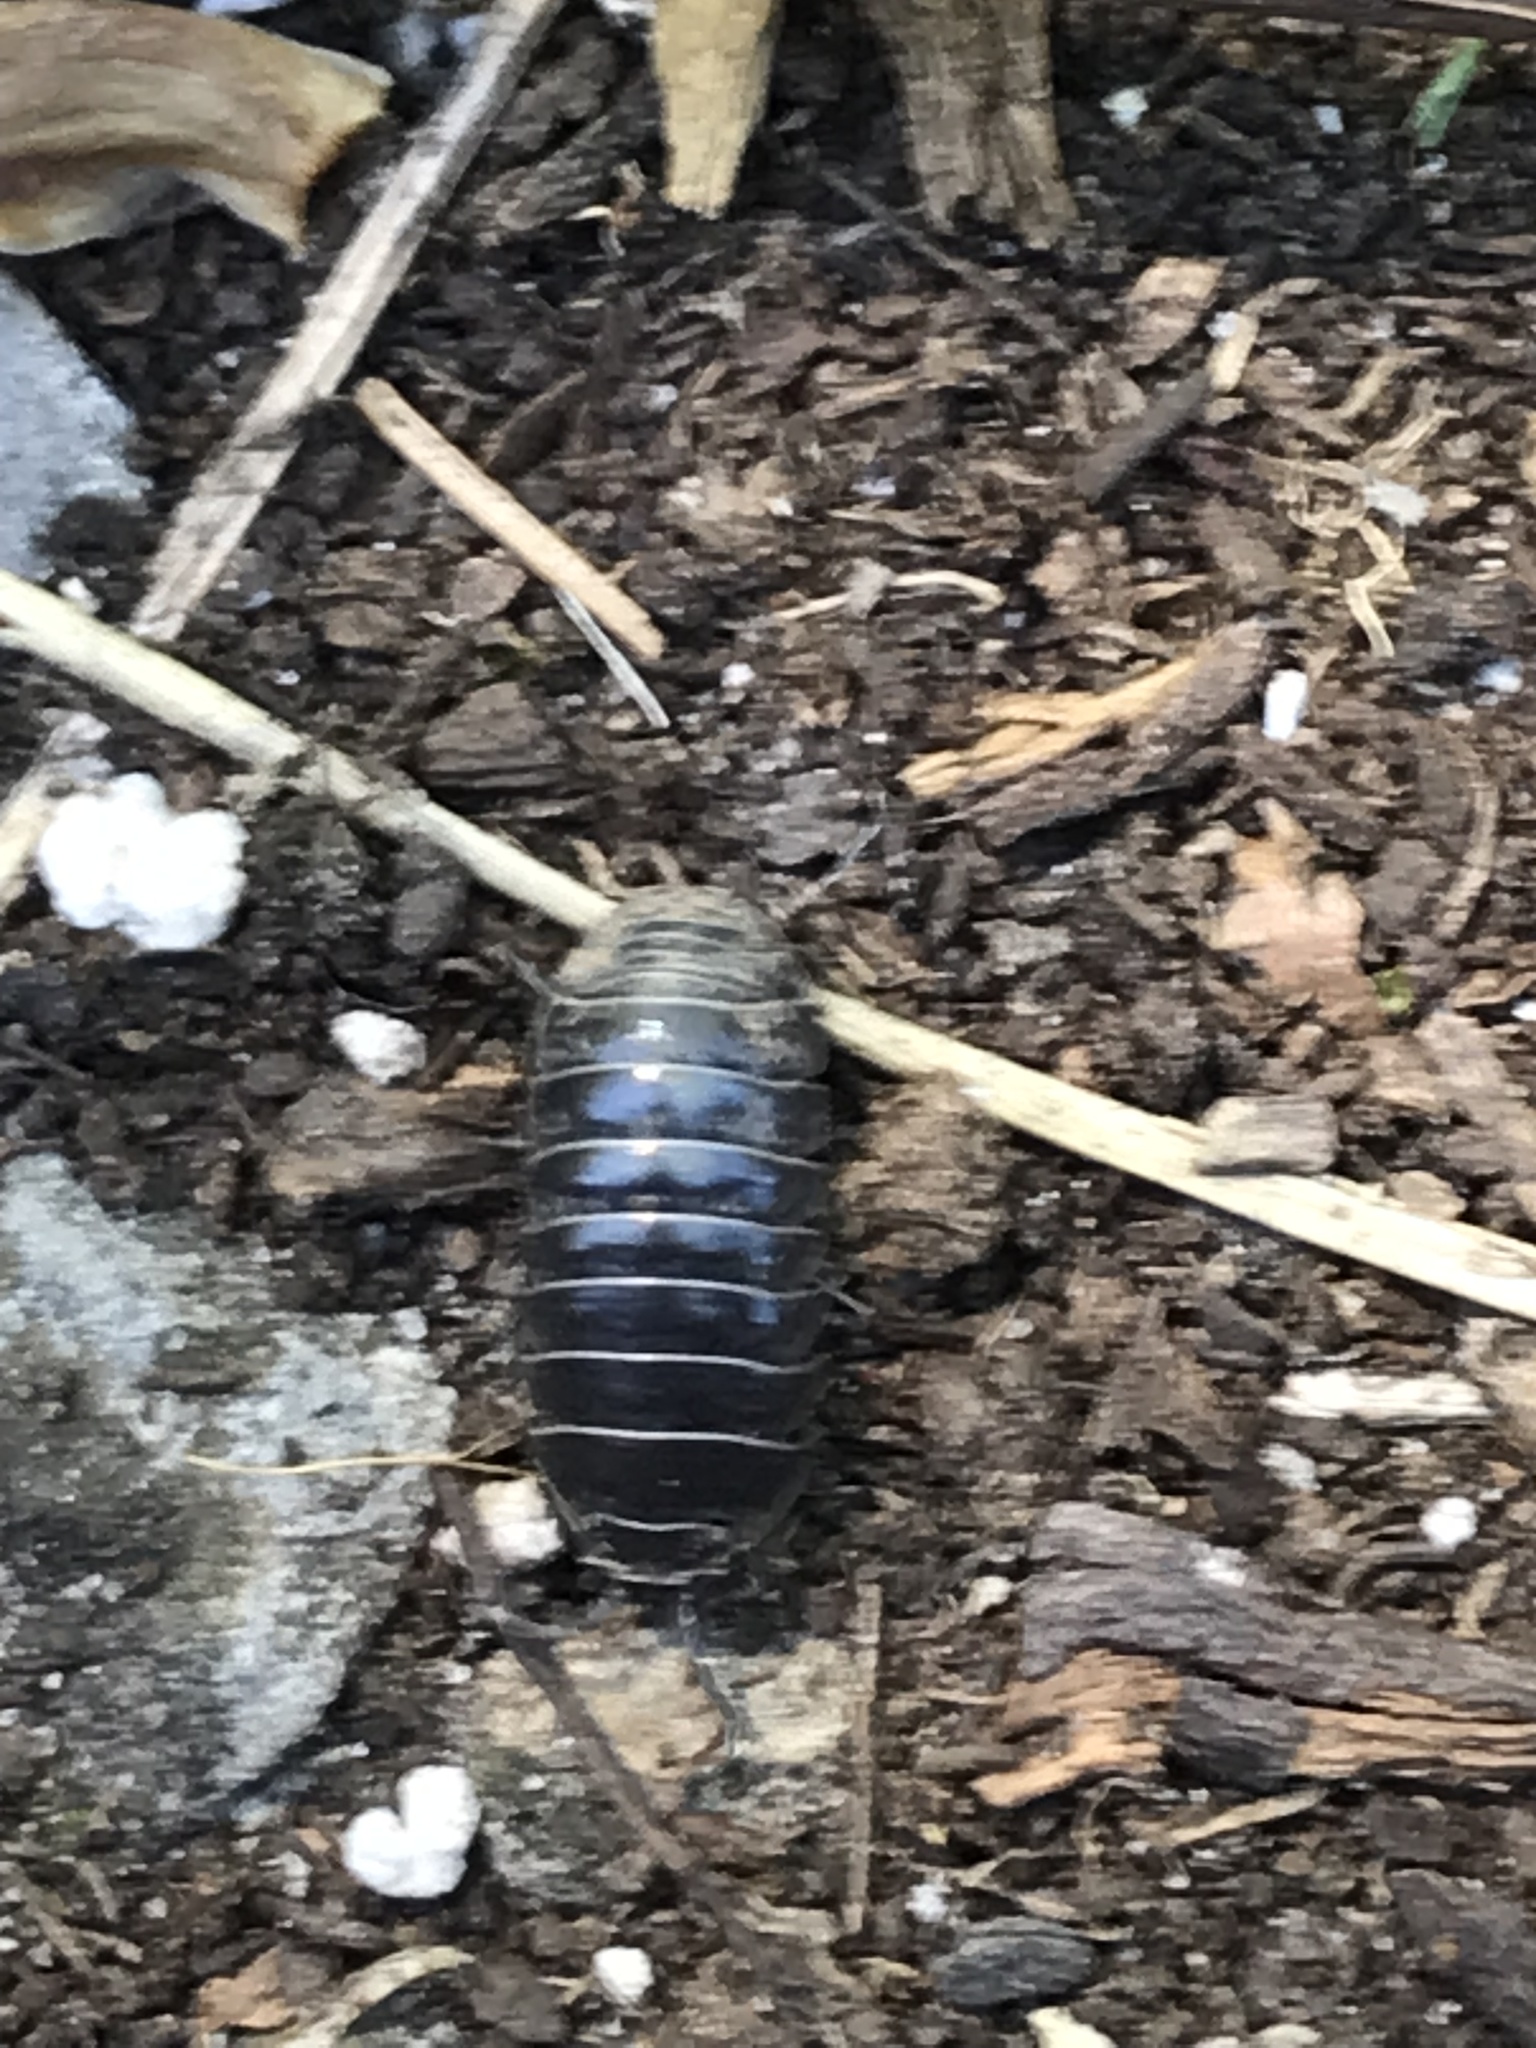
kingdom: Animalia
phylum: Arthropoda
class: Malacostraca
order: Isopoda
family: Armadillidiidae
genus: Armadillidium
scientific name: Armadillidium vulgare
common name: Common pill woodlouse
